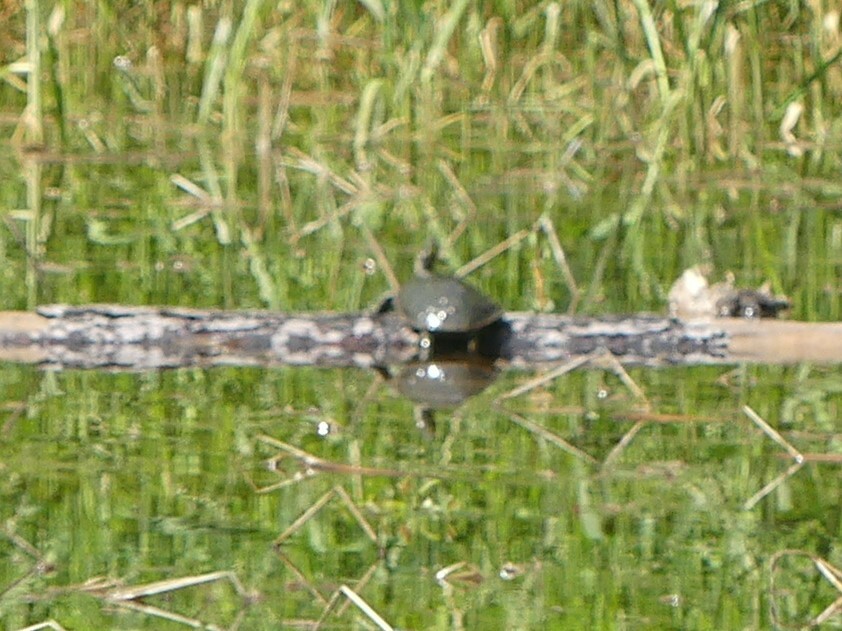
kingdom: Animalia
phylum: Chordata
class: Testudines
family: Emydidae
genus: Chrysemys
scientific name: Chrysemys picta
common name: Painted turtle
